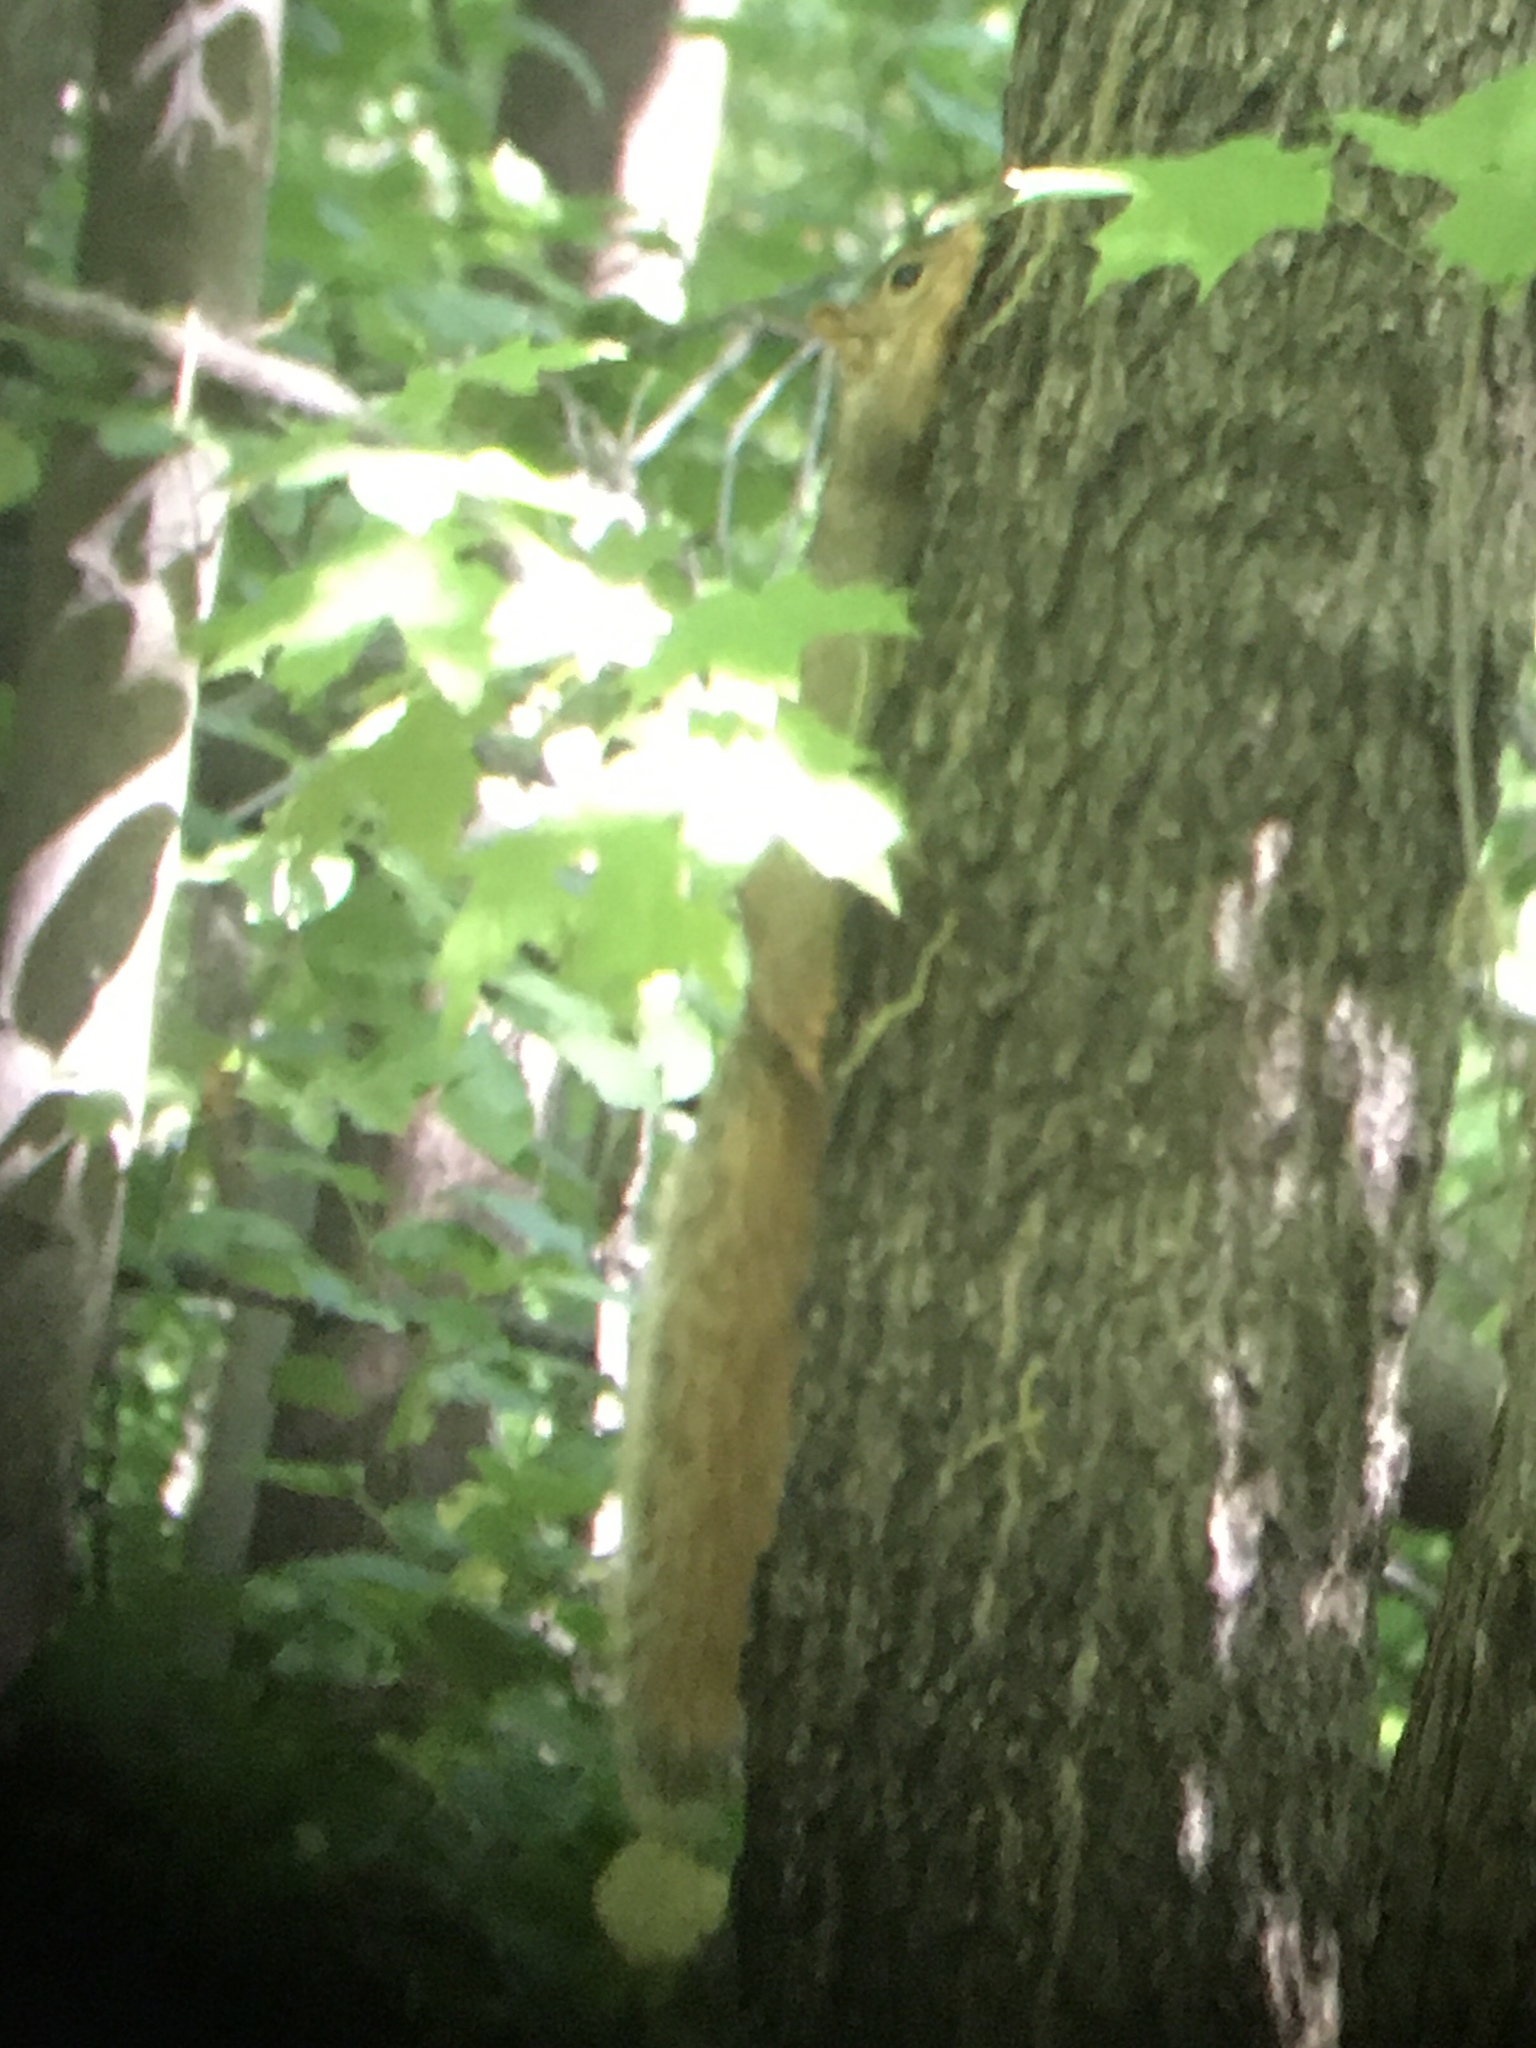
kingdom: Animalia
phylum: Chordata
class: Mammalia
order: Rodentia
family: Sciuridae
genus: Sciurus
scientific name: Sciurus niger
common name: Fox squirrel
